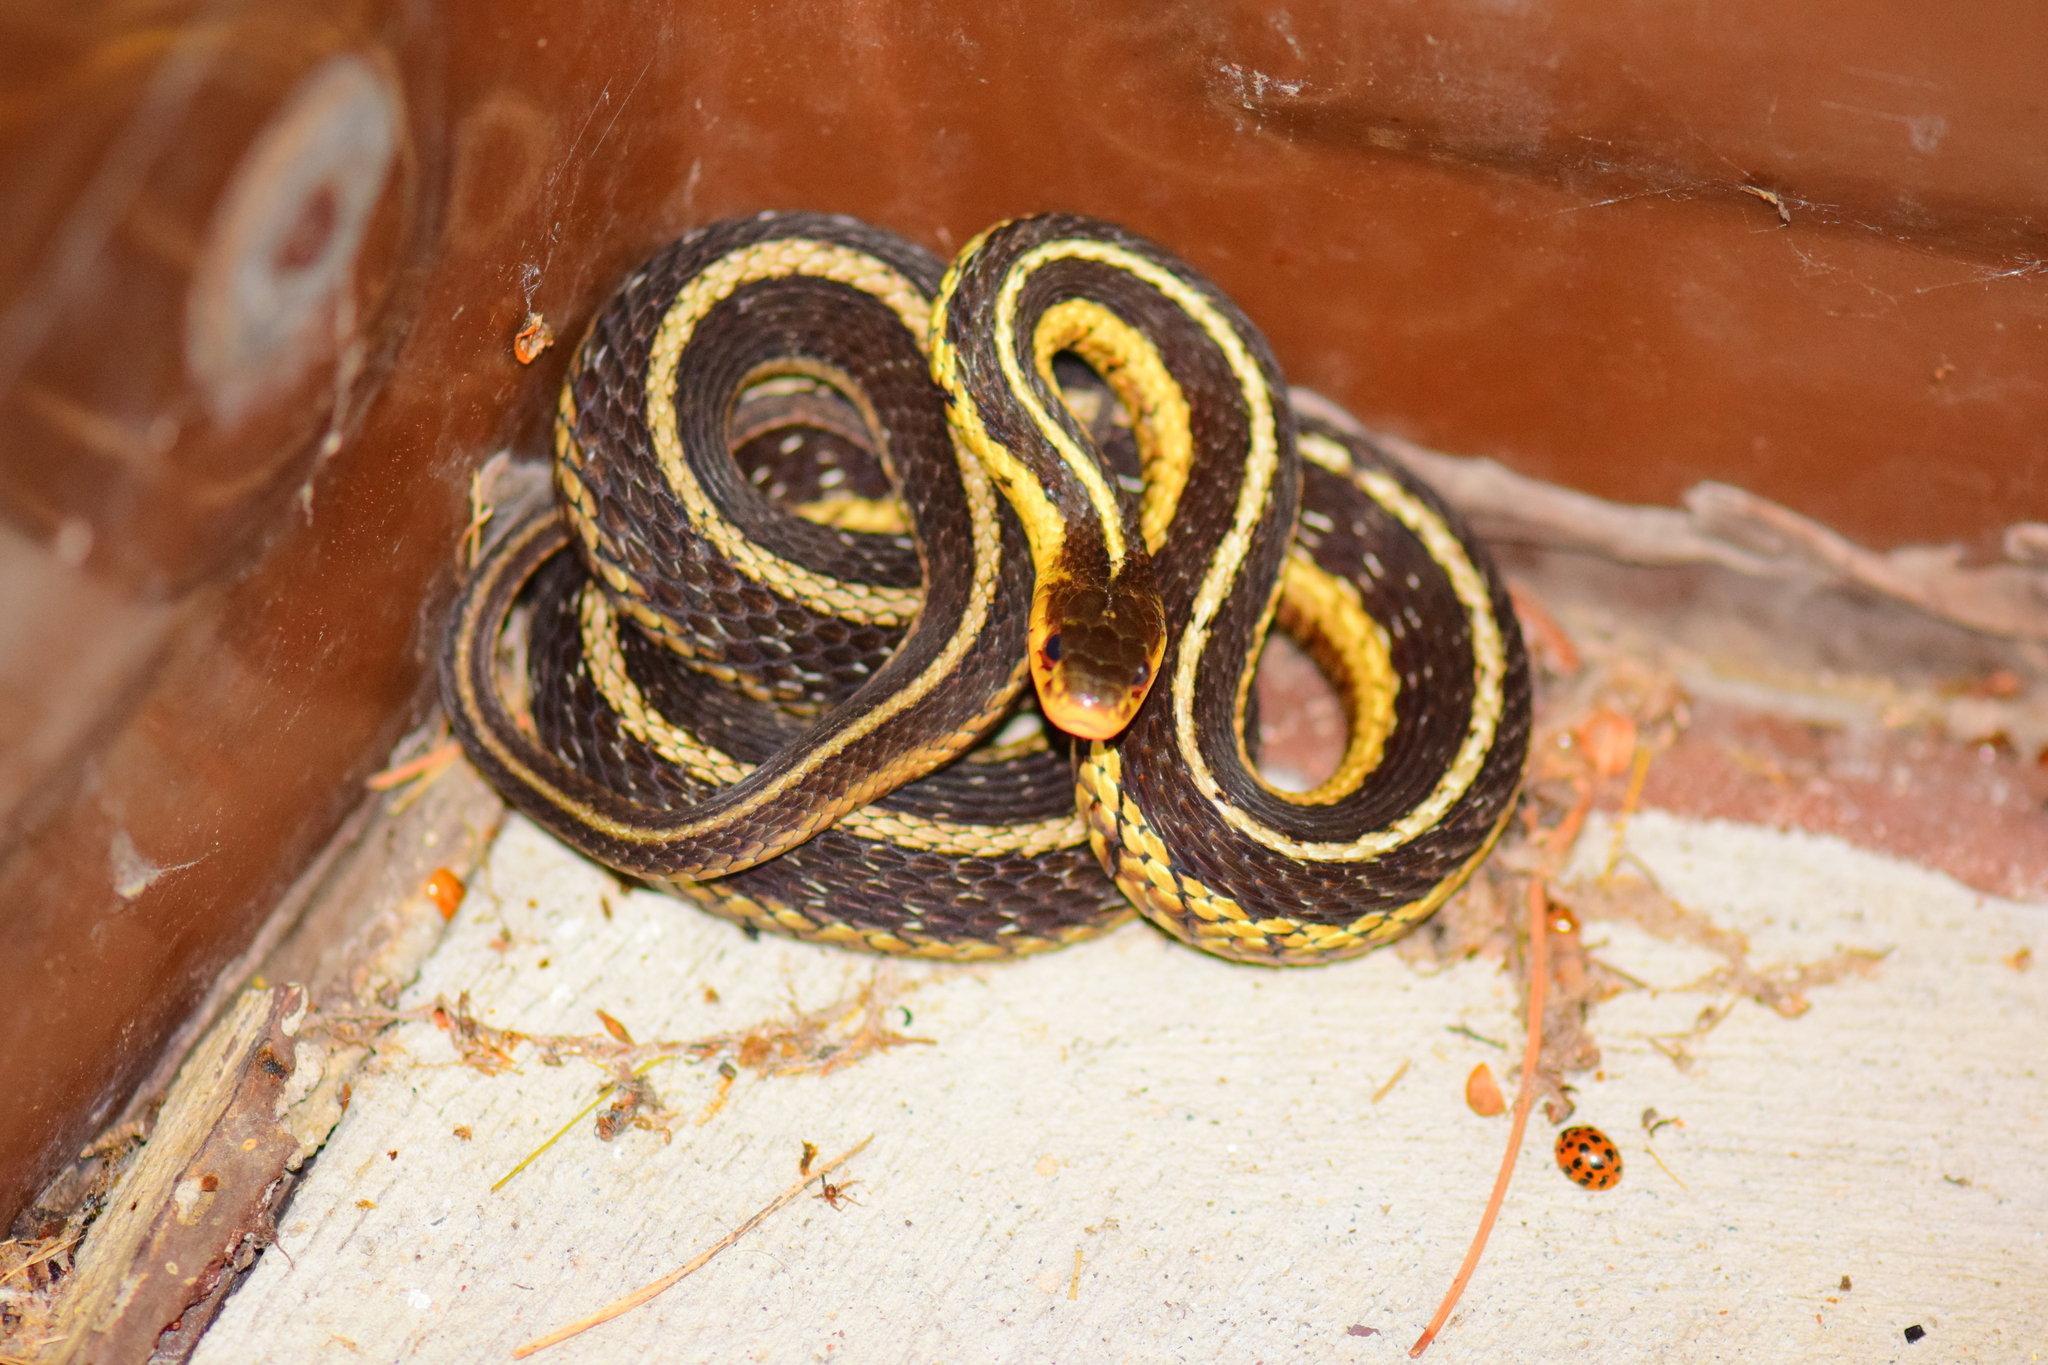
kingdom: Animalia
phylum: Chordata
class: Squamata
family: Colubridae
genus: Thamnophis
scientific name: Thamnophis sirtalis
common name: Common garter snake
